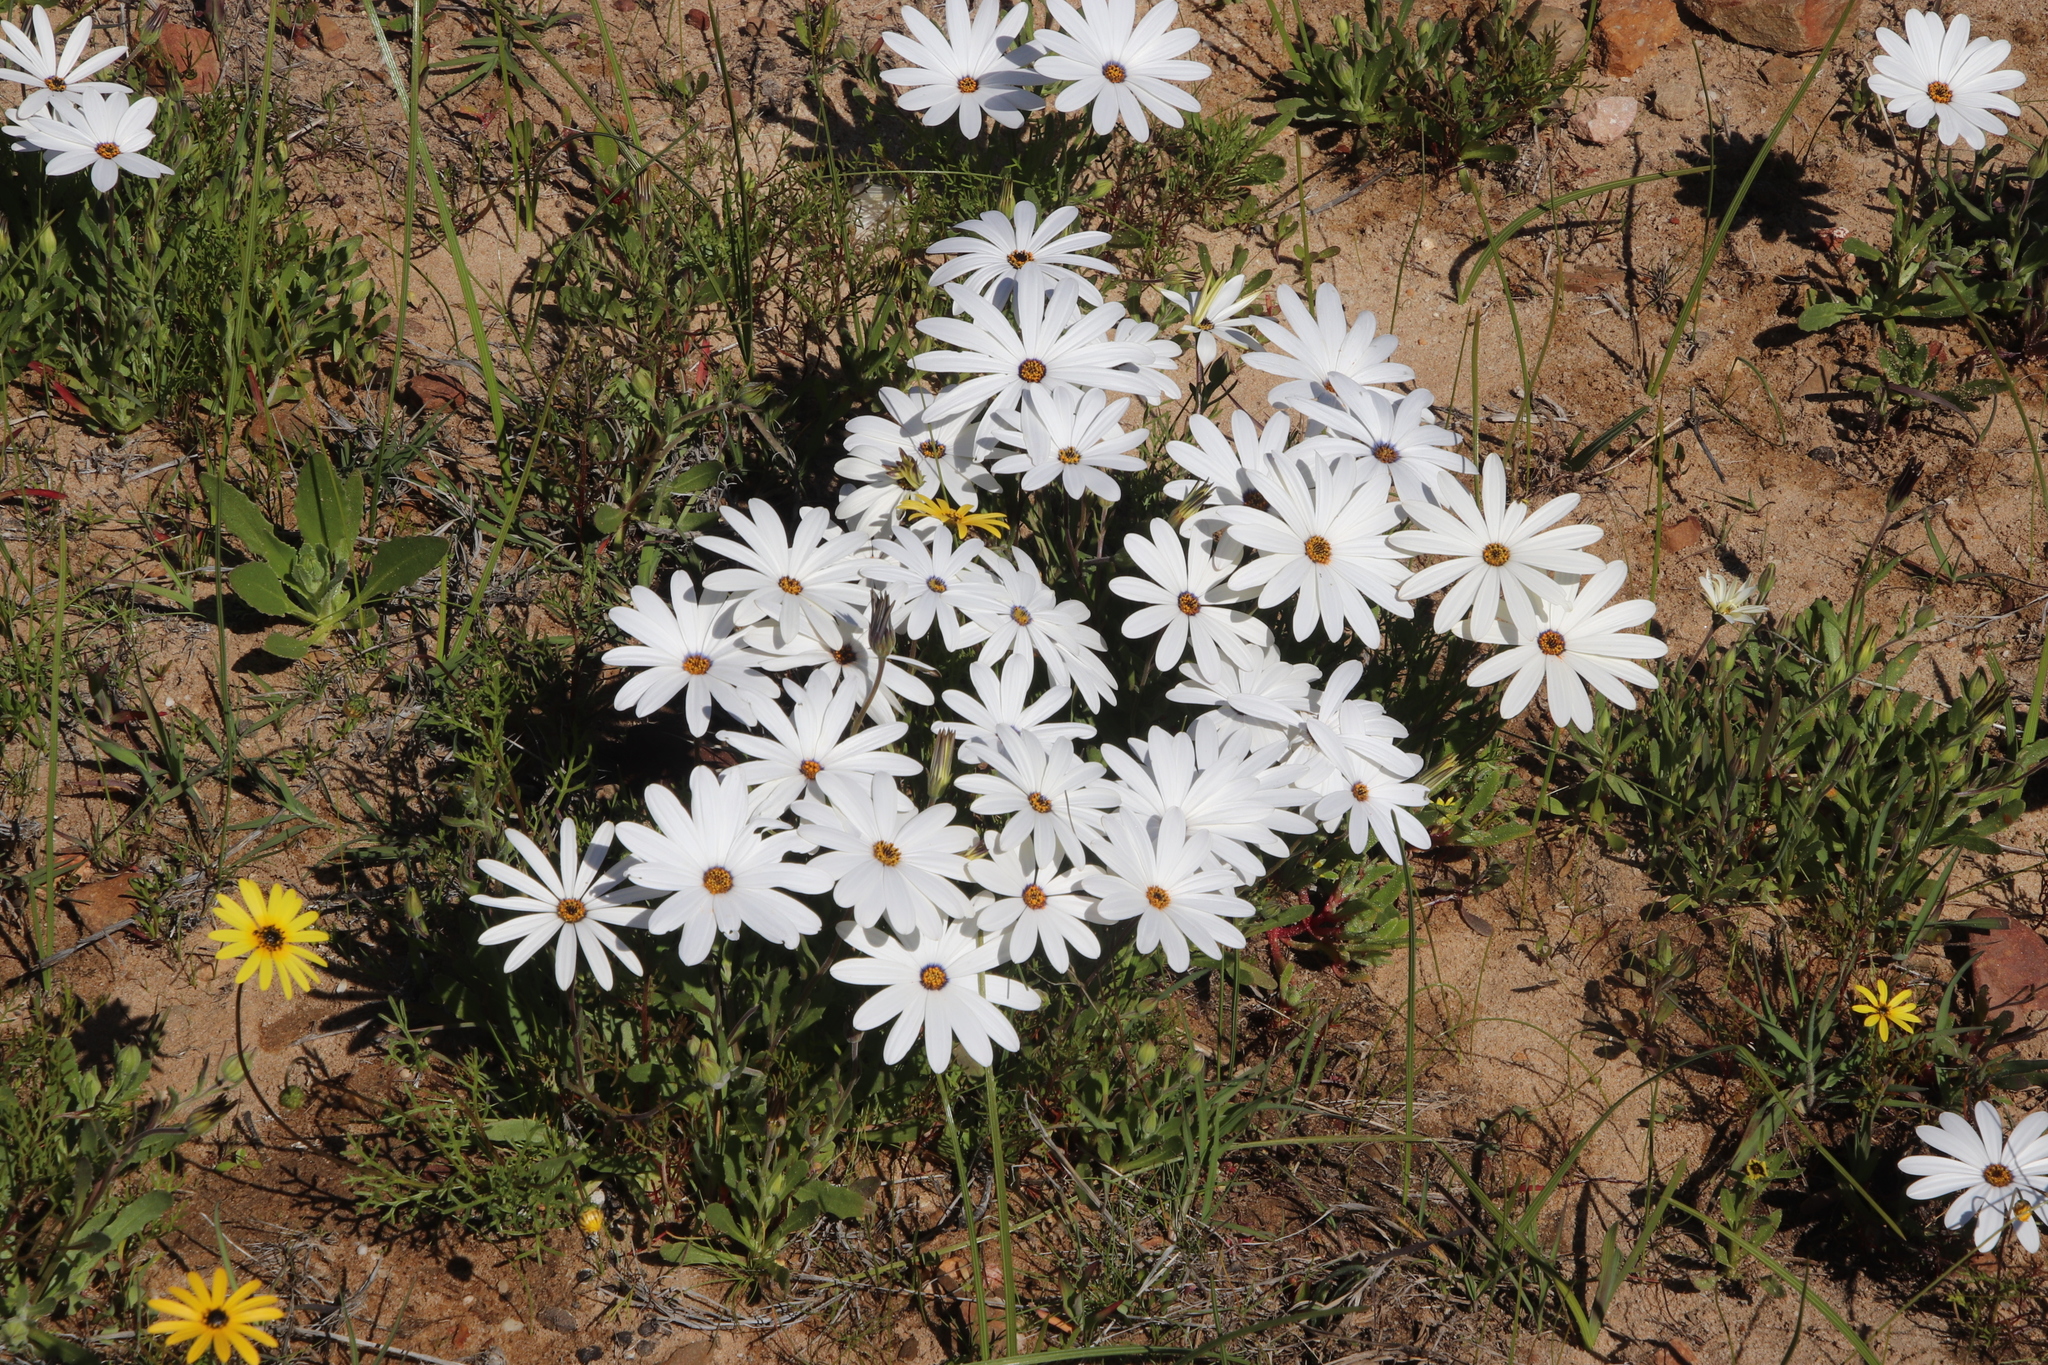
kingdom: Plantae
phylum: Tracheophyta
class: Magnoliopsida
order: Asterales
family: Asteraceae
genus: Dimorphotheca
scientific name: Dimorphotheca pluvialis
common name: Weather prophet
